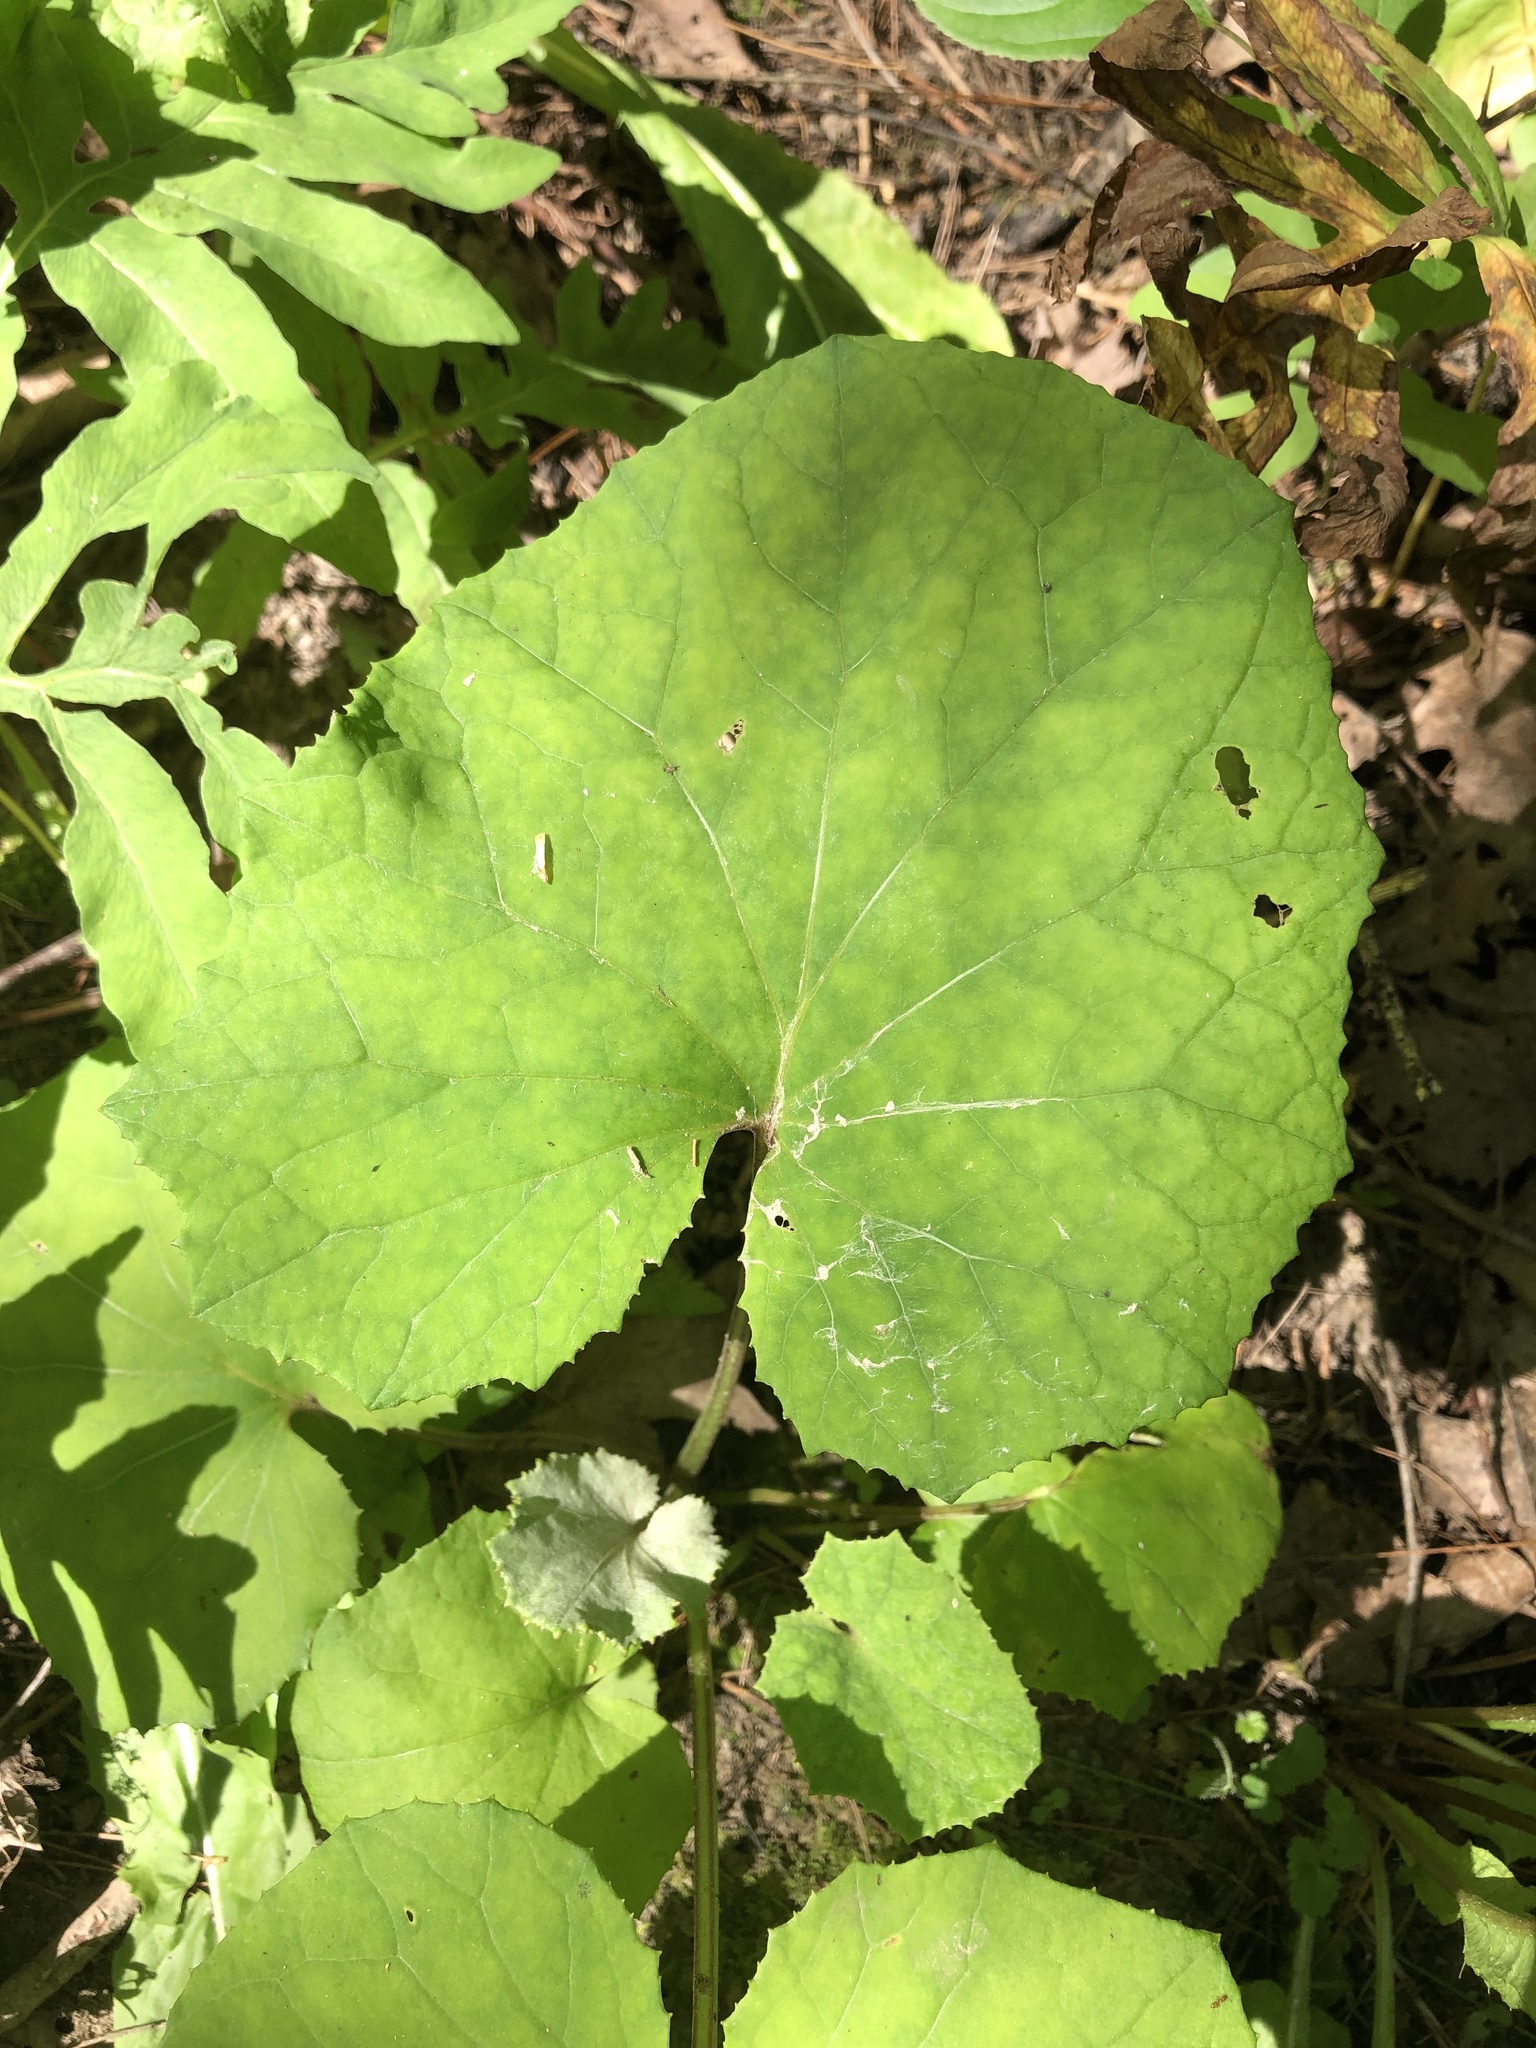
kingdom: Plantae
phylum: Tracheophyta
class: Magnoliopsida
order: Asterales
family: Asteraceae
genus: Tussilago
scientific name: Tussilago farfara
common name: Coltsfoot
